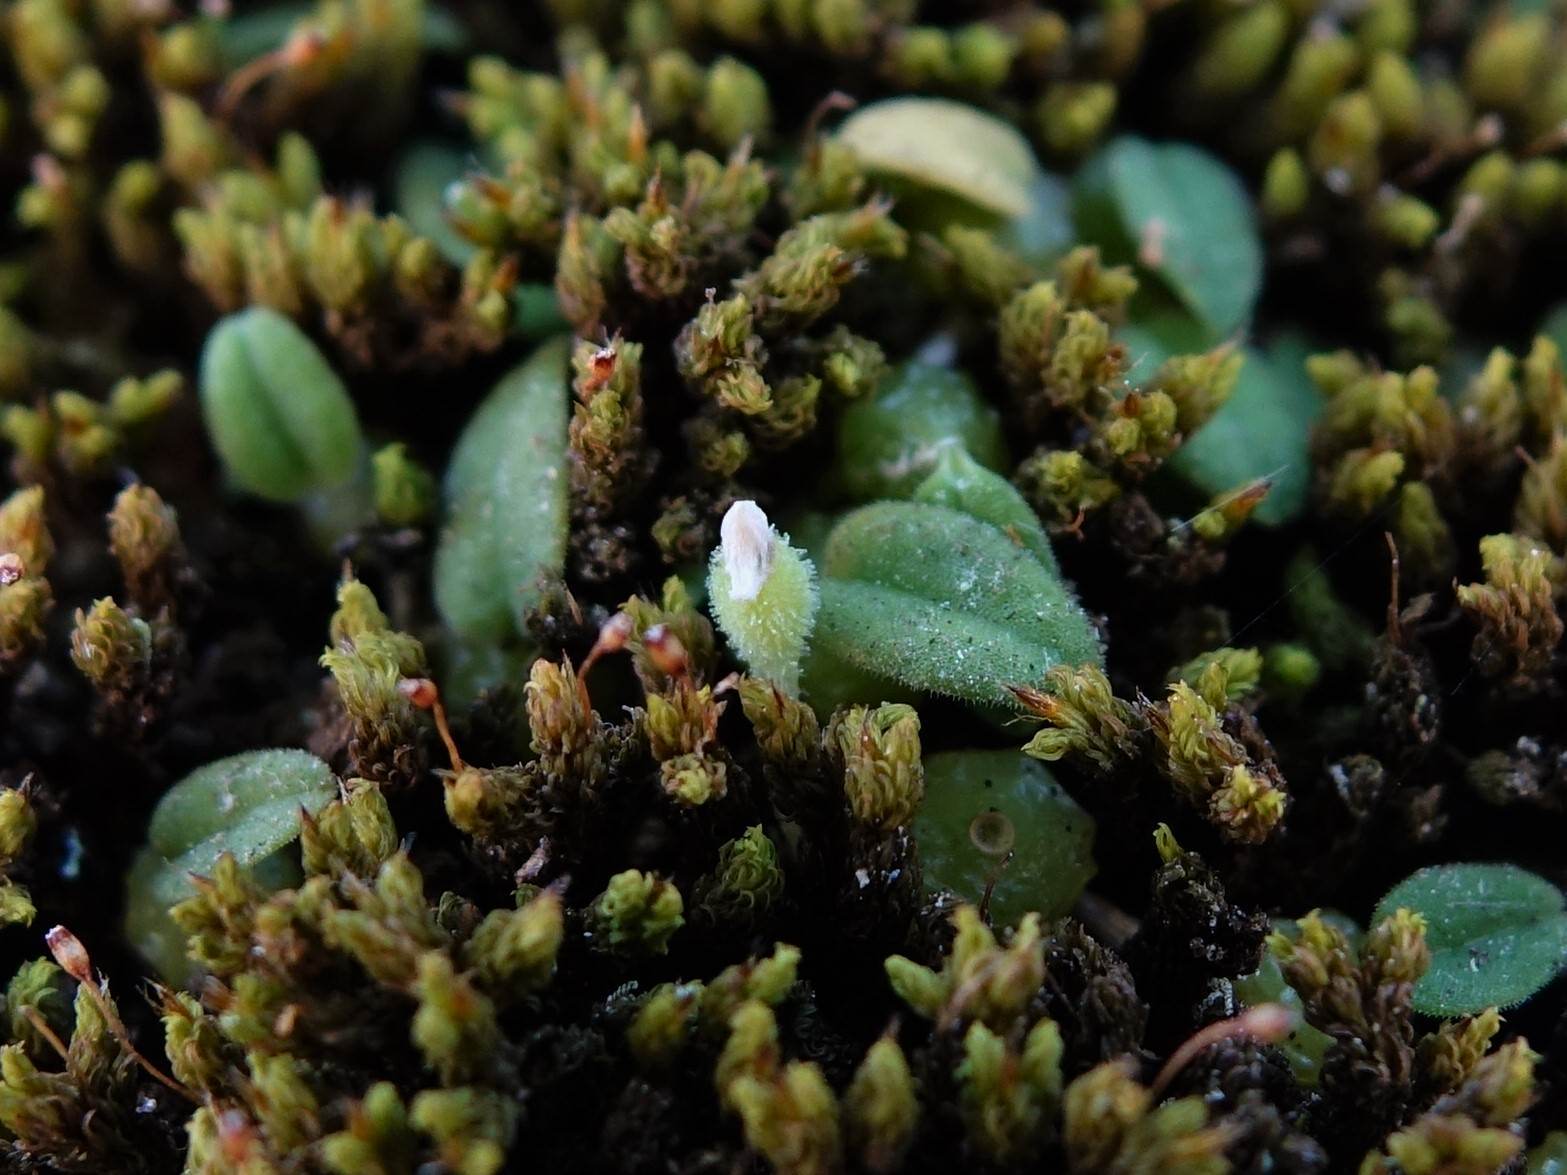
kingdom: Plantae
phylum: Tracheophyta
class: Liliopsida
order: Asparagales
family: Orchidaceae
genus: Bulbophyllum
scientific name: Bulbophyllum pygmaeum
